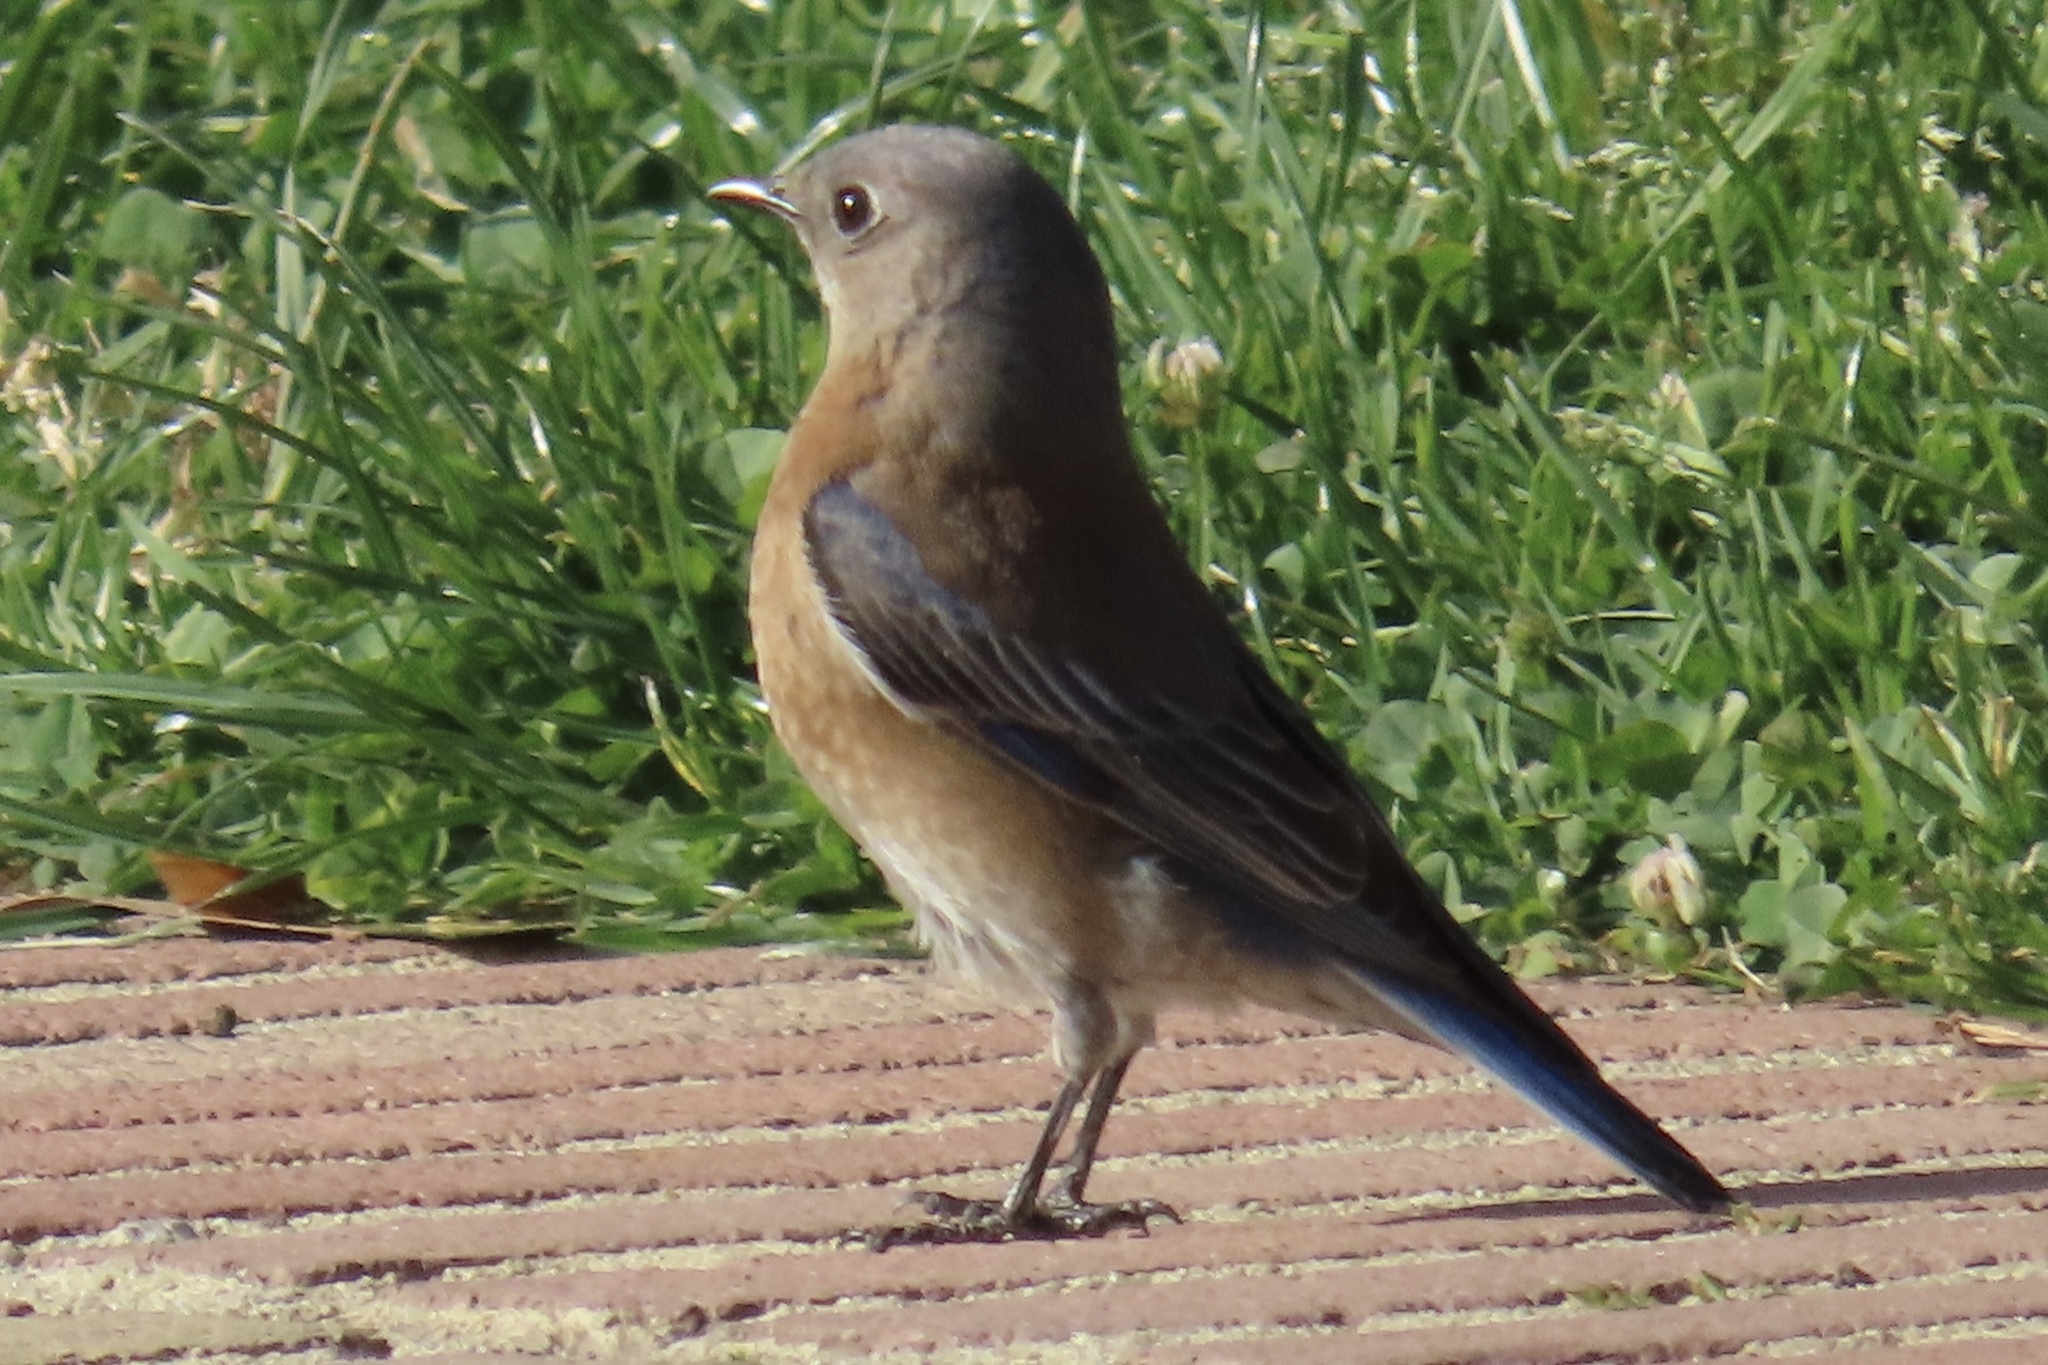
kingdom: Animalia
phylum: Chordata
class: Aves
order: Passeriformes
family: Turdidae
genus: Sialia
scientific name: Sialia mexicana
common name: Western bluebird
